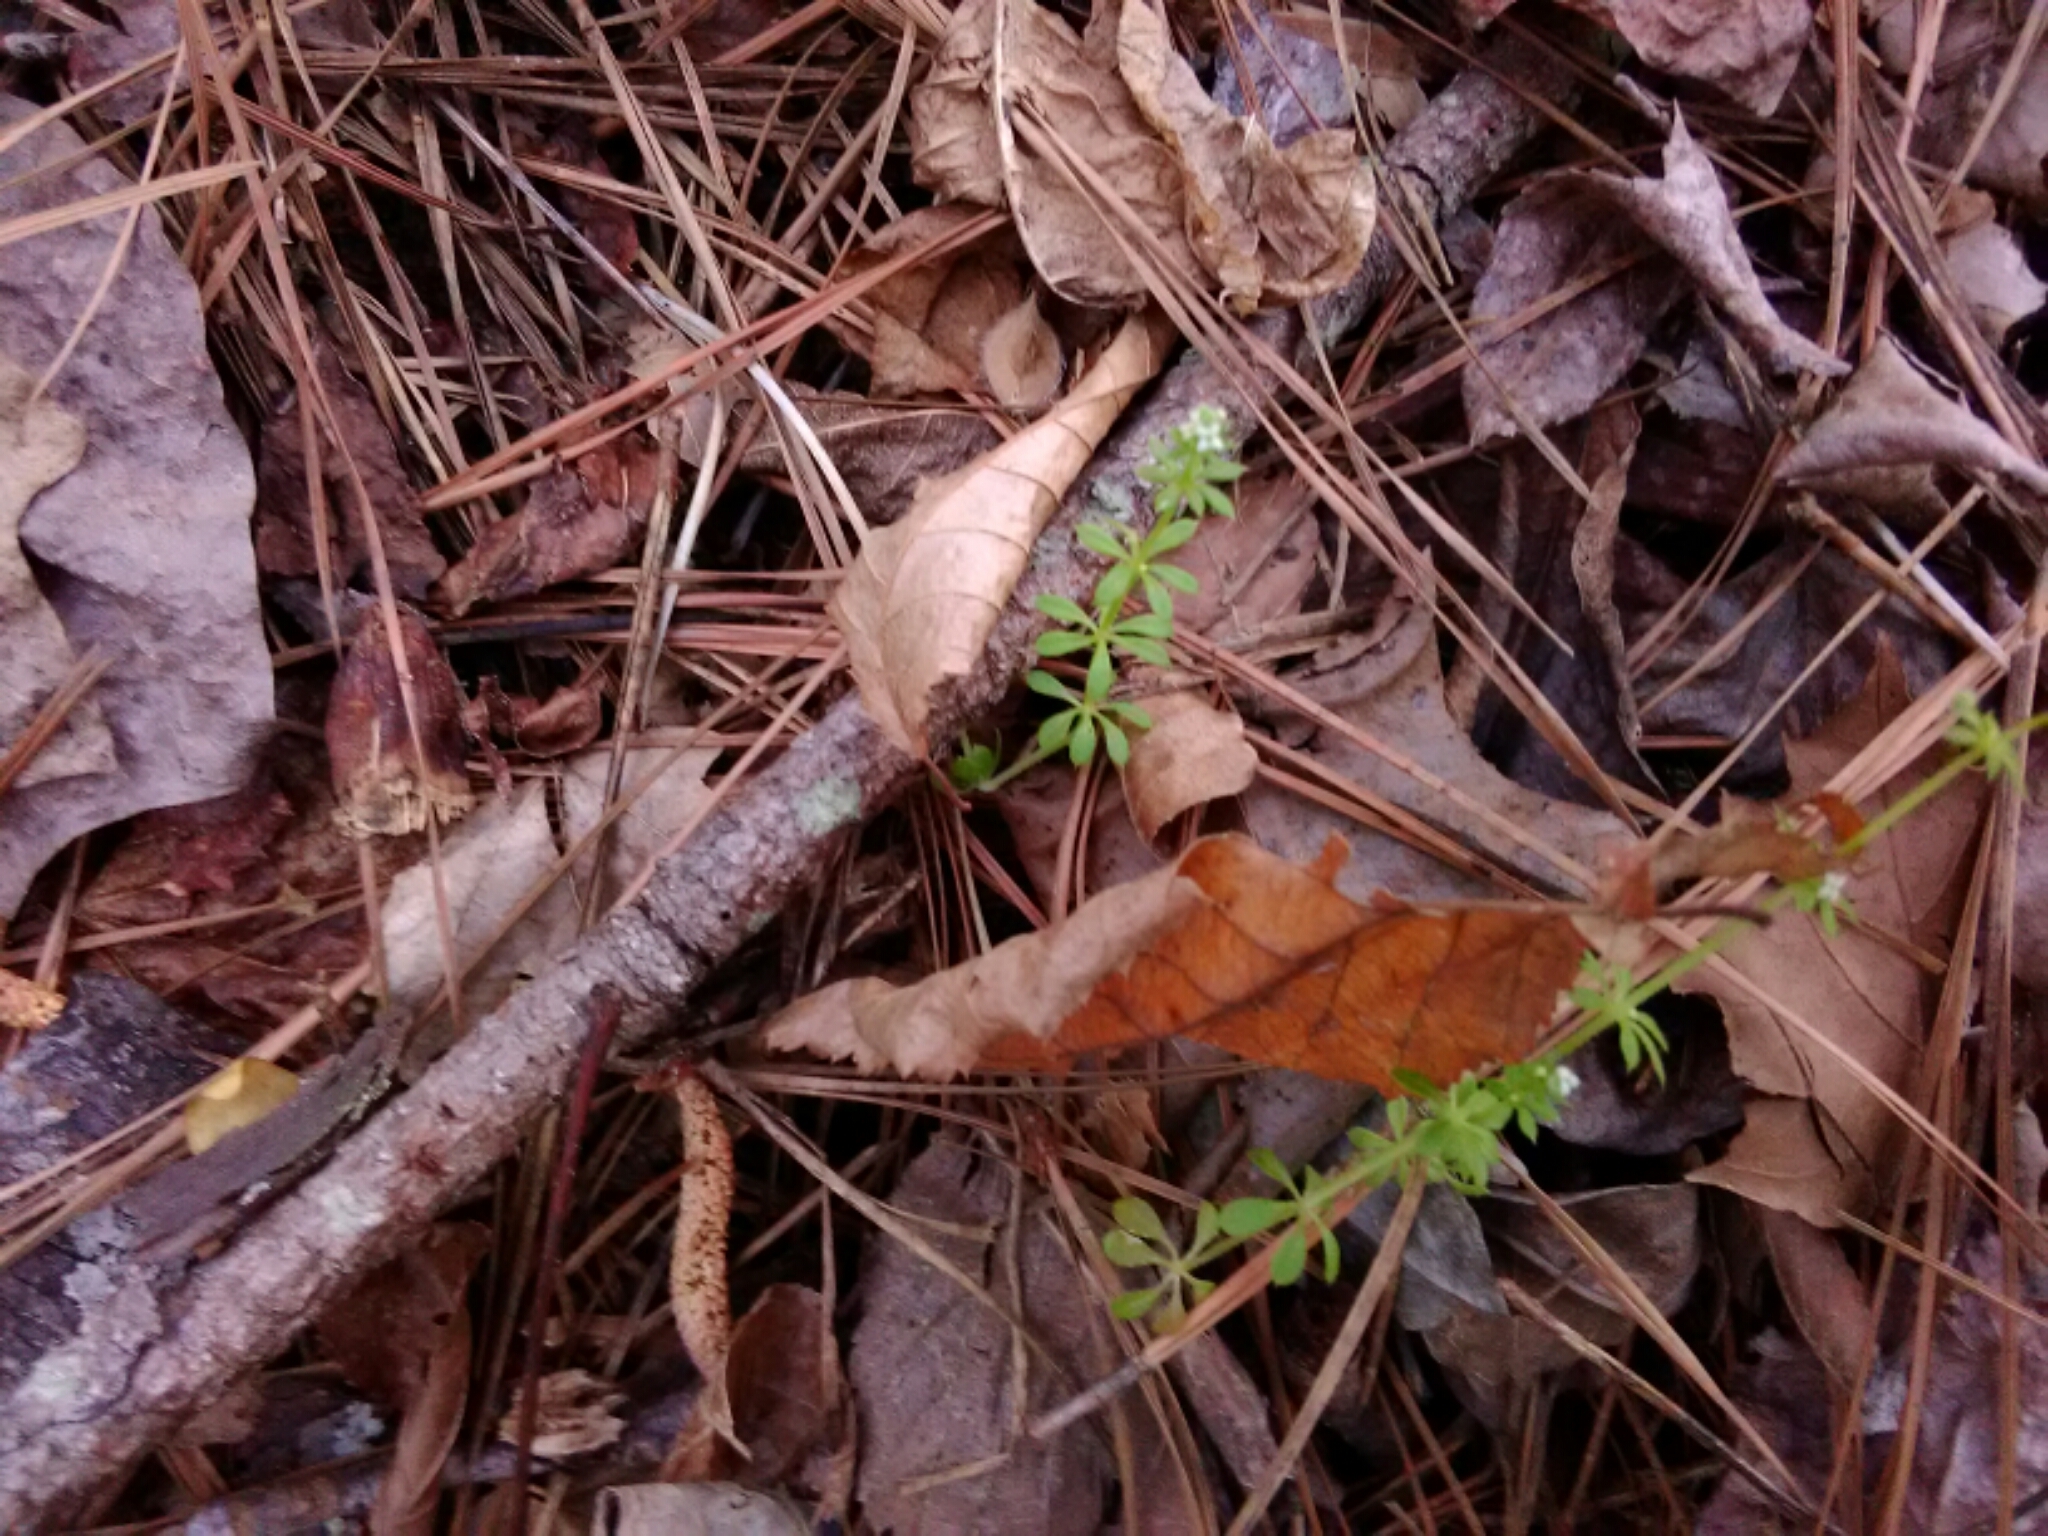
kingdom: Plantae
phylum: Tracheophyta
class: Magnoliopsida
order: Gentianales
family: Rubiaceae
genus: Galium
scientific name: Galium aparine
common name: Cleavers
